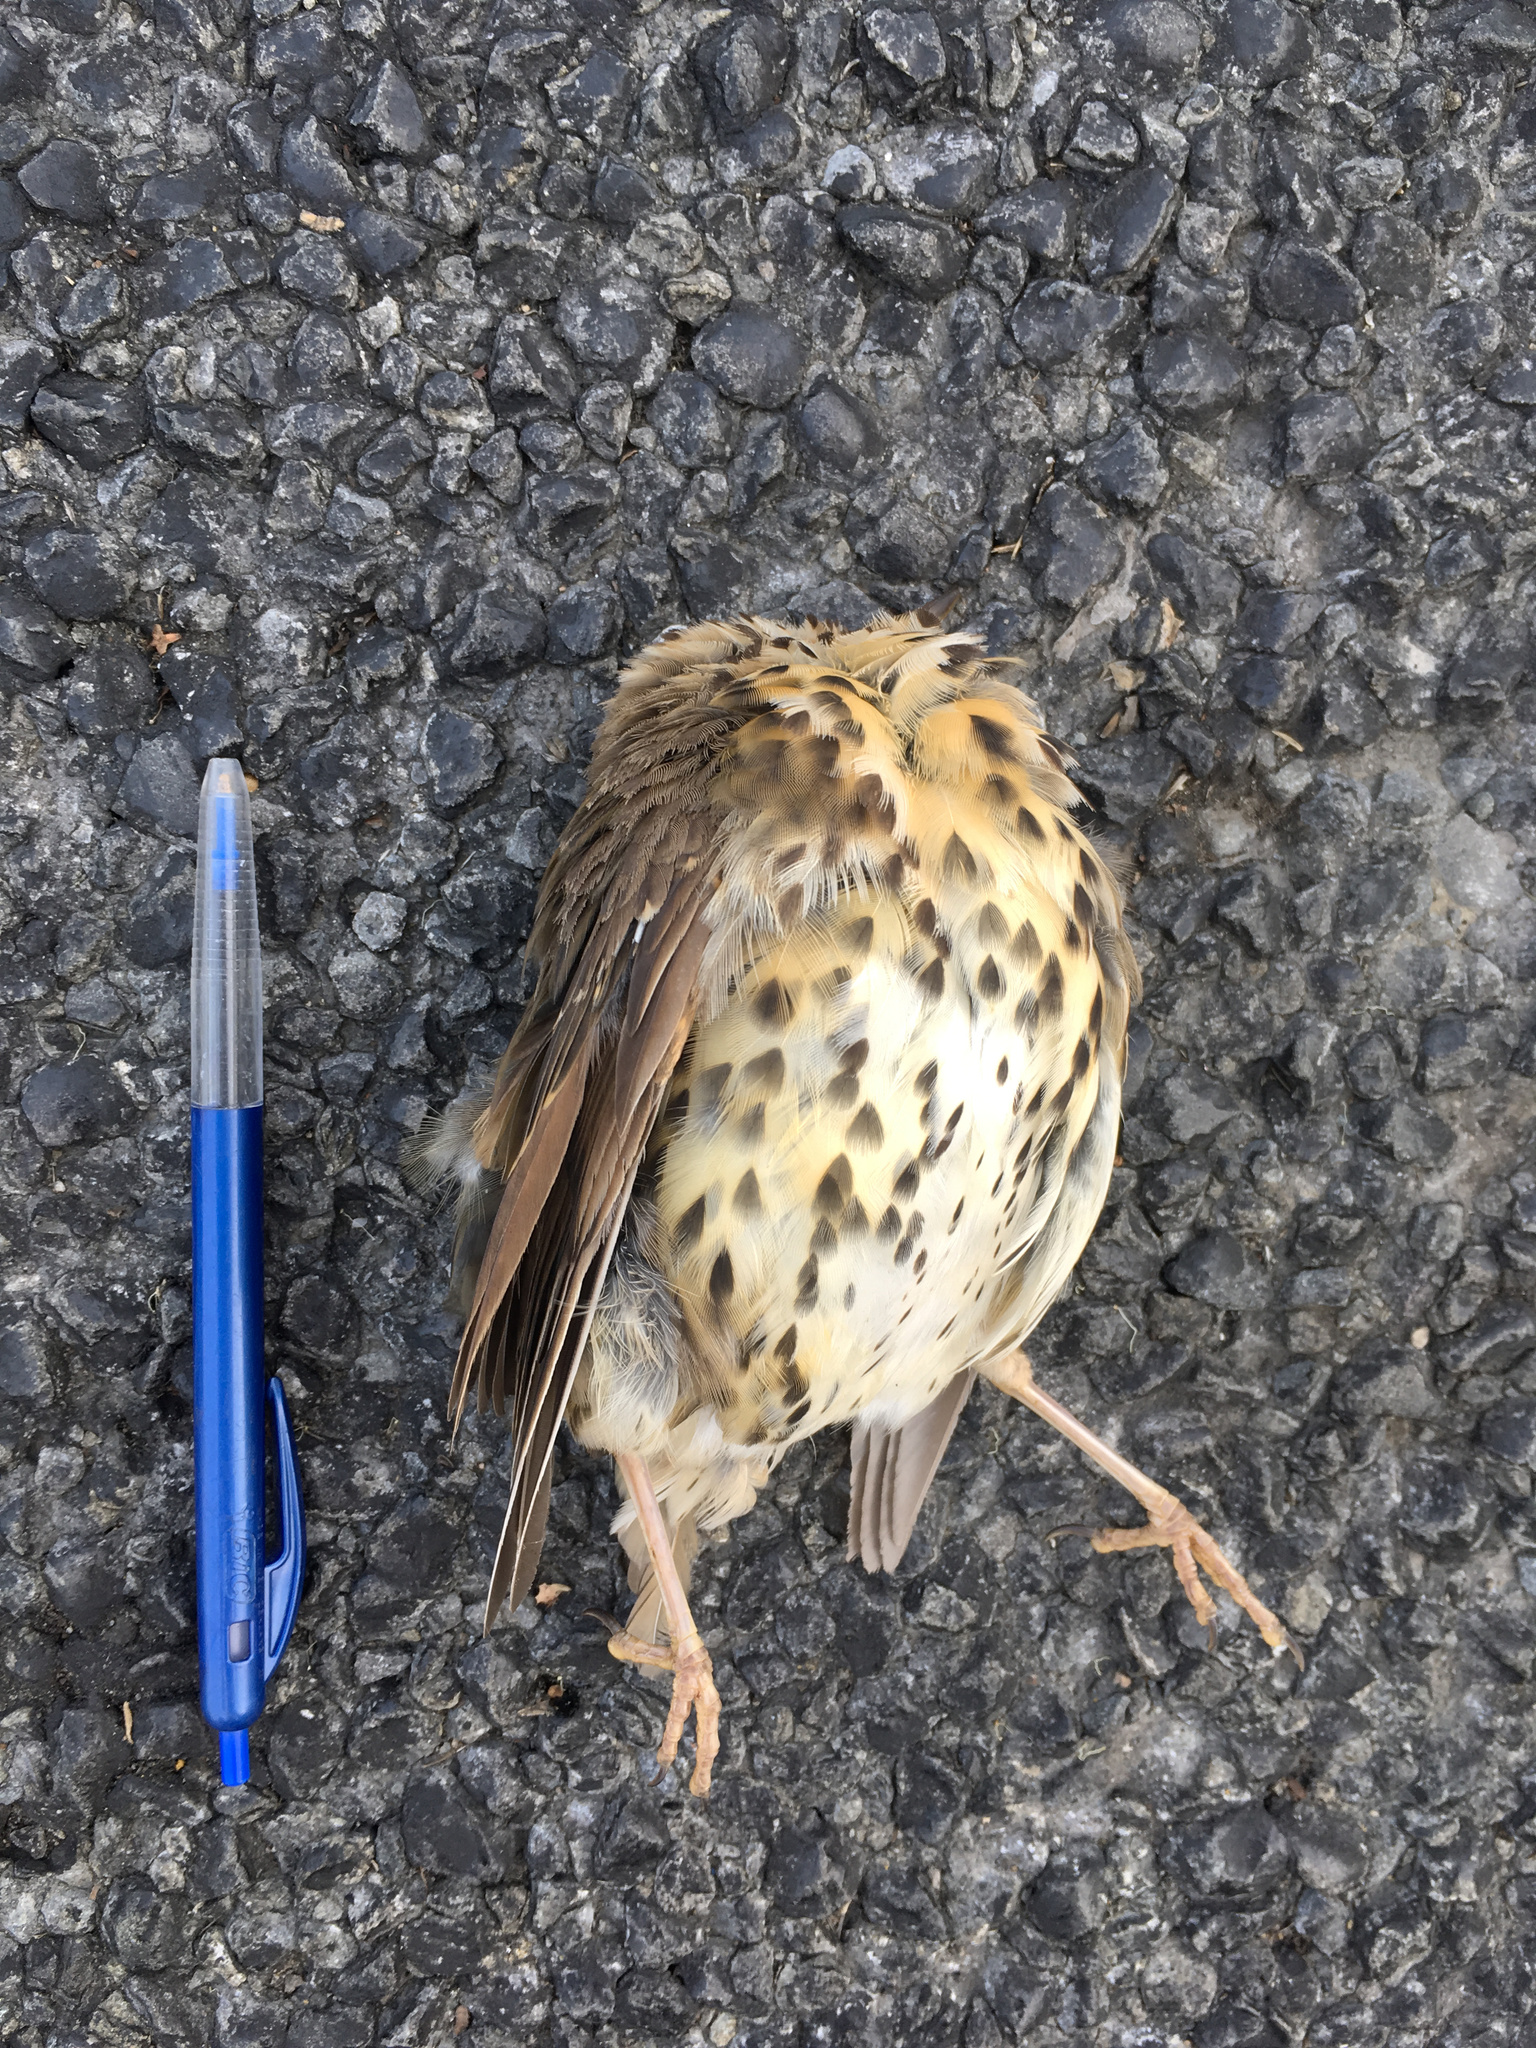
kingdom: Animalia
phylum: Chordata
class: Aves
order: Passeriformes
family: Turdidae
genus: Turdus
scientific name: Turdus philomelos
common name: Song thrush
